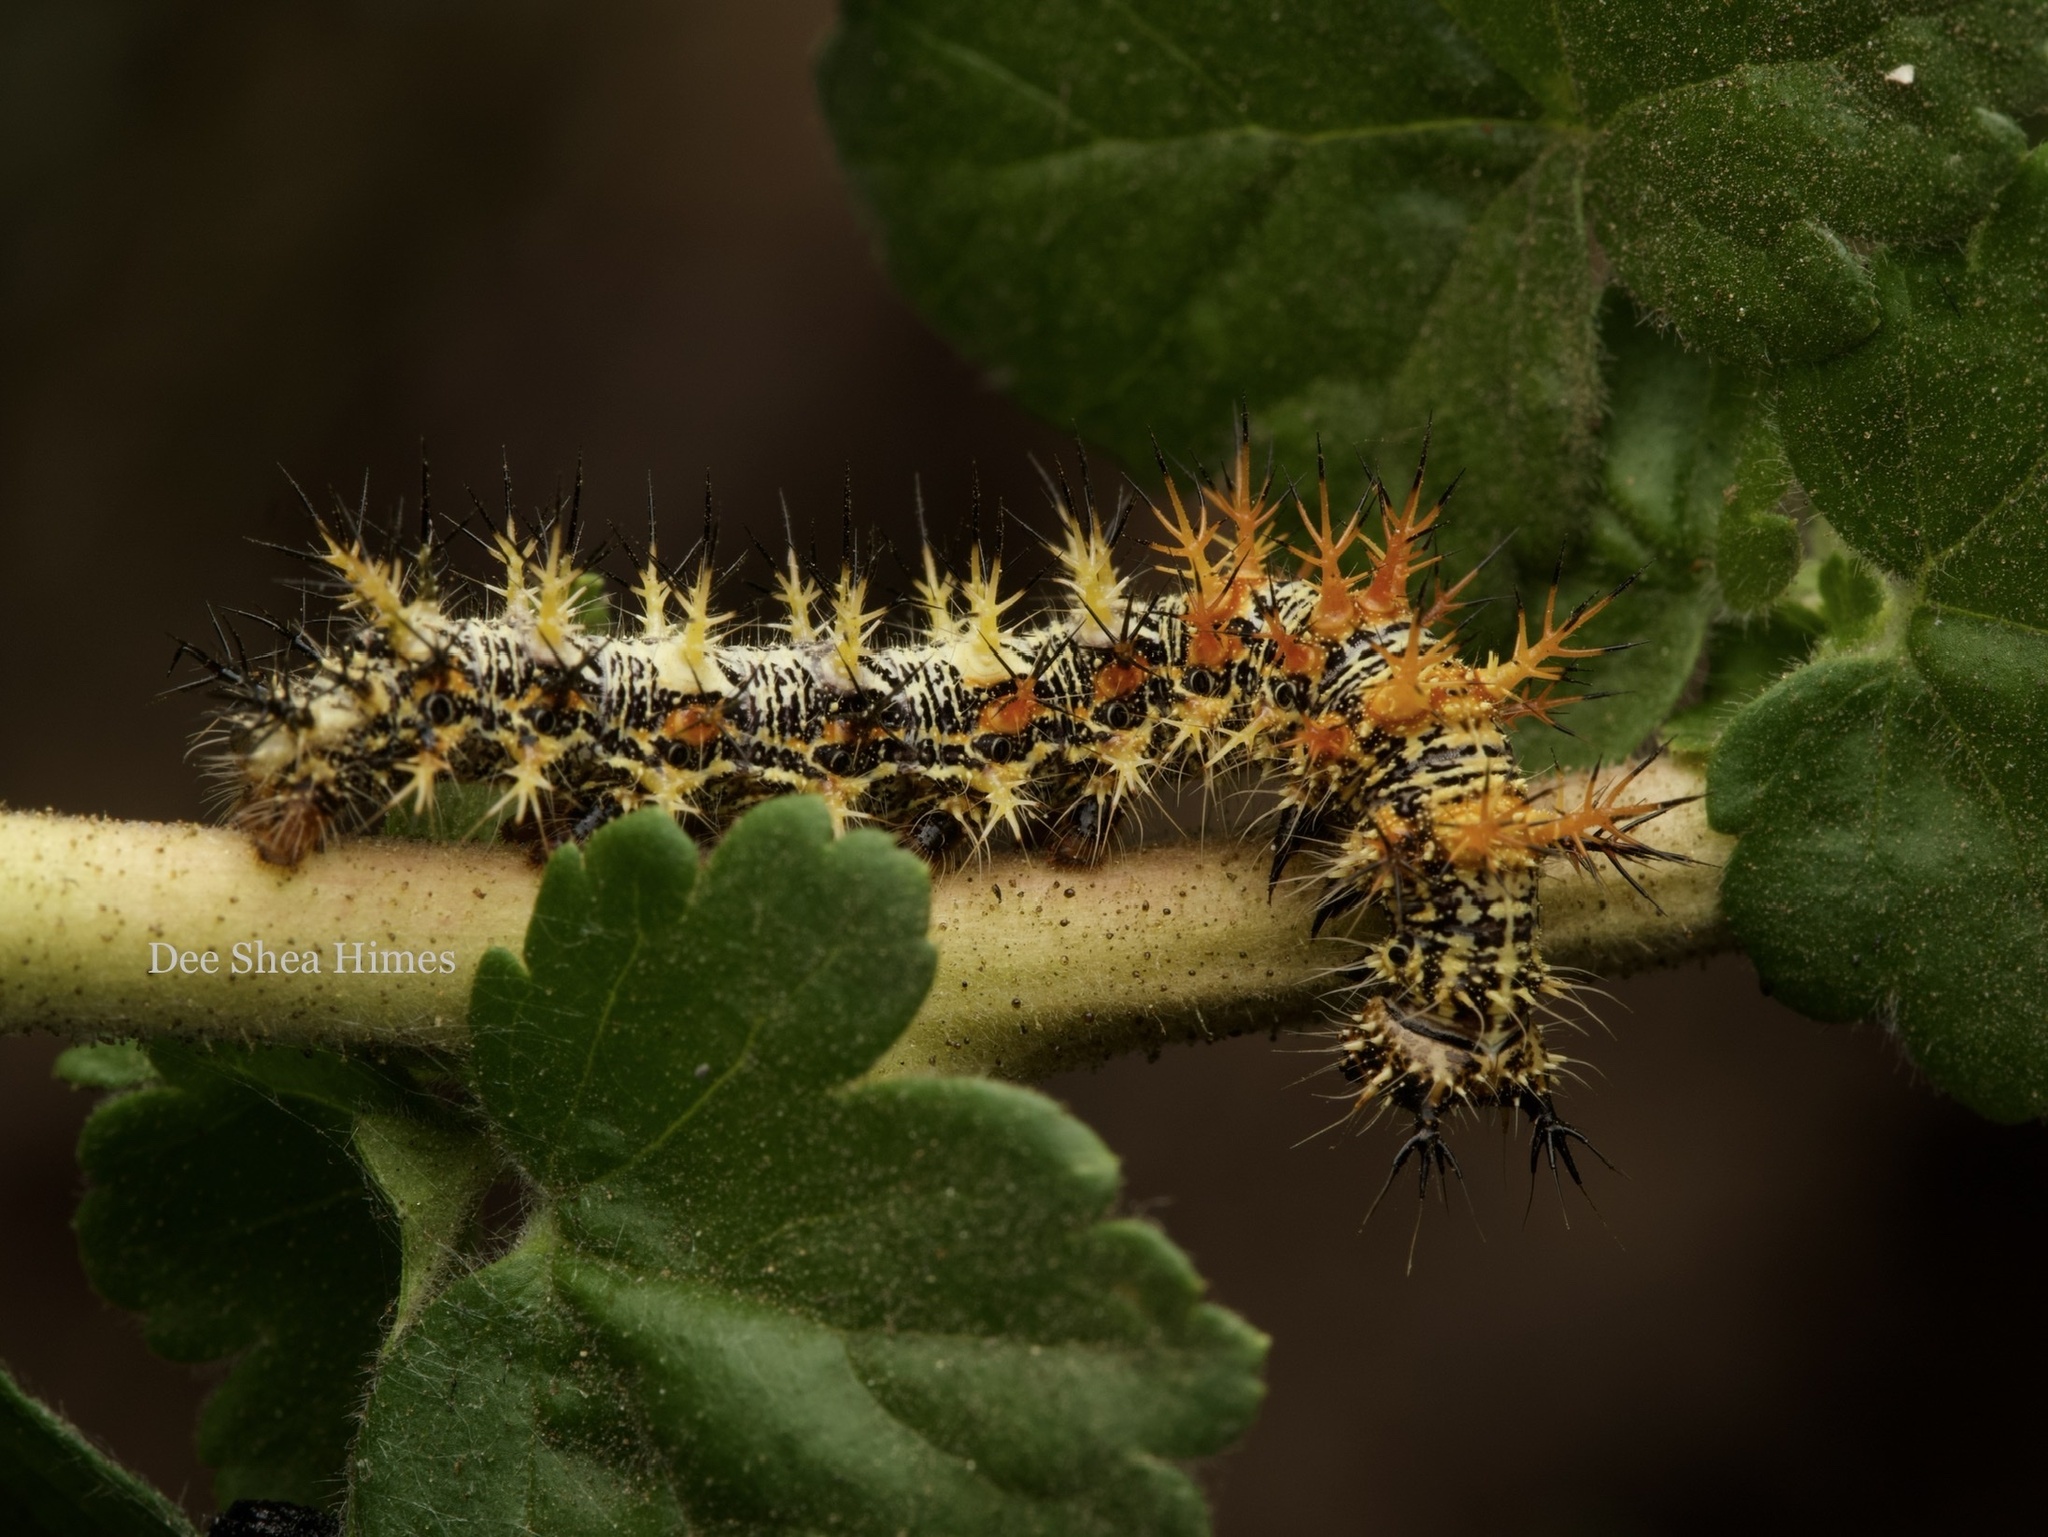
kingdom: Animalia
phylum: Arthropoda
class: Insecta
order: Lepidoptera
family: Nymphalidae
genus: Polygonia
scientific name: Polygonia gracilis
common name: Hoary comma
